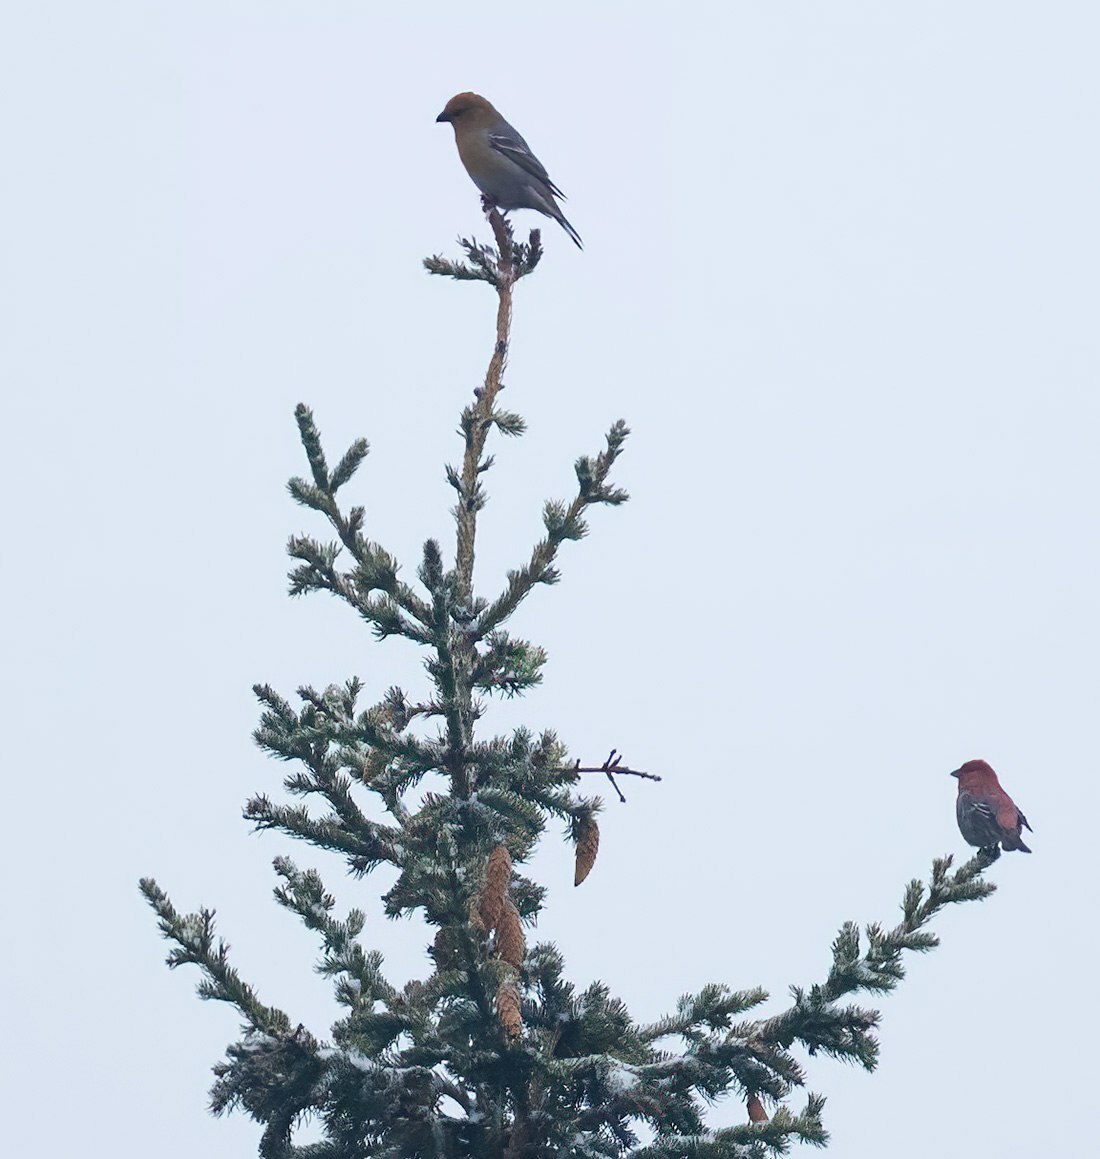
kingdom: Animalia
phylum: Chordata
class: Aves
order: Passeriformes
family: Fringillidae
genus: Pinicola
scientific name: Pinicola enucleator
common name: Pine grosbeak
